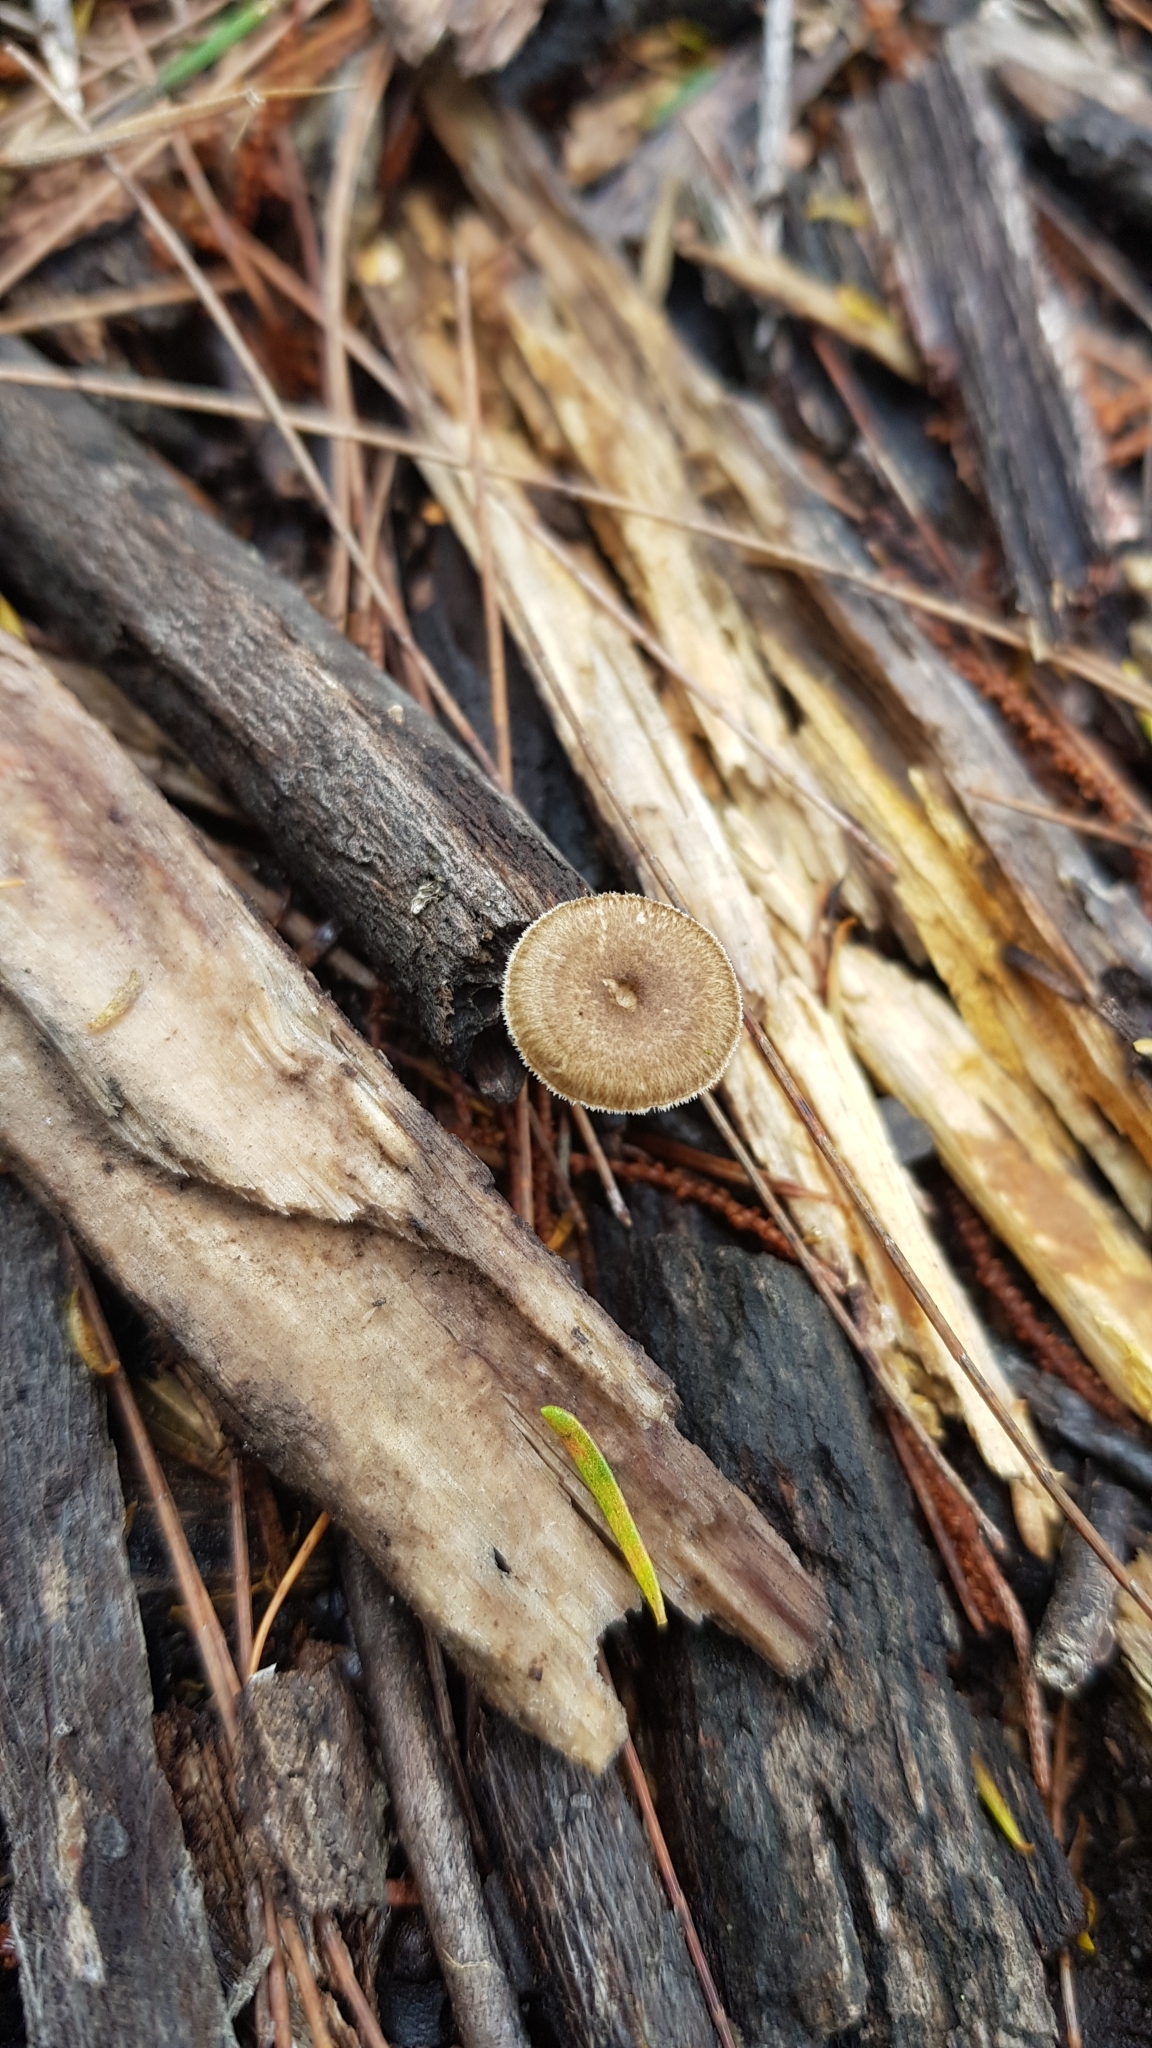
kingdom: Fungi
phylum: Basidiomycota
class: Agaricomycetes
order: Polyporales
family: Polyporaceae
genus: Lentinus
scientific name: Lentinus arcularius
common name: Spring polypore
